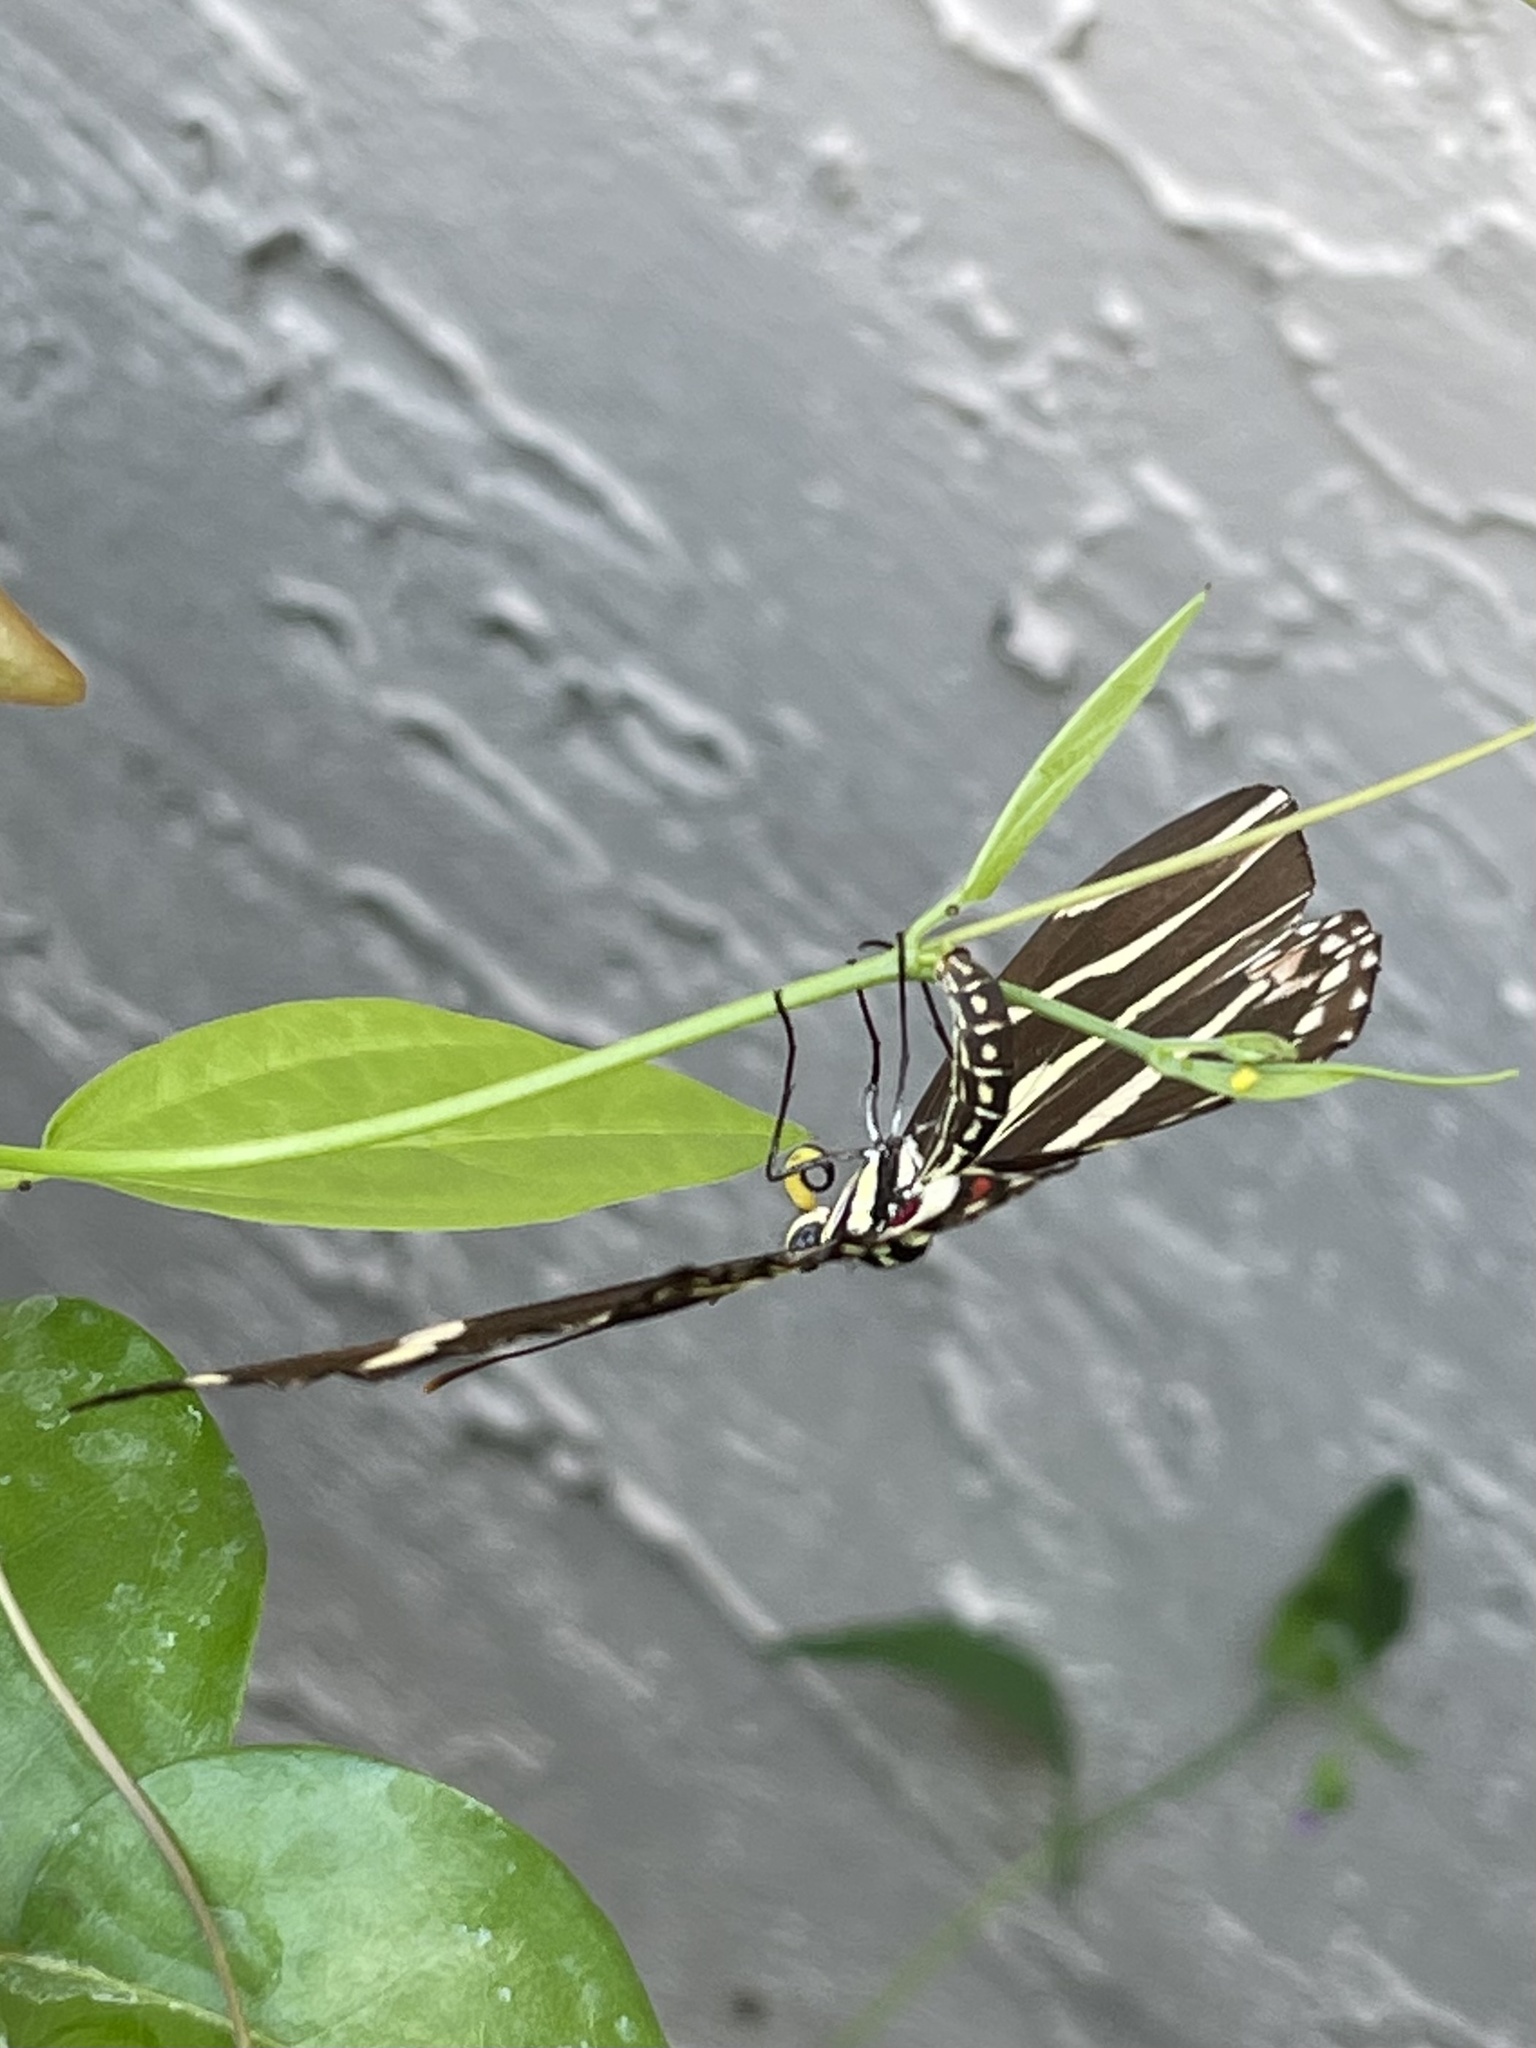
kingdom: Animalia
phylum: Arthropoda
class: Insecta
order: Lepidoptera
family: Nymphalidae
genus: Heliconius
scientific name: Heliconius charithonia
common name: Zebra long wing
